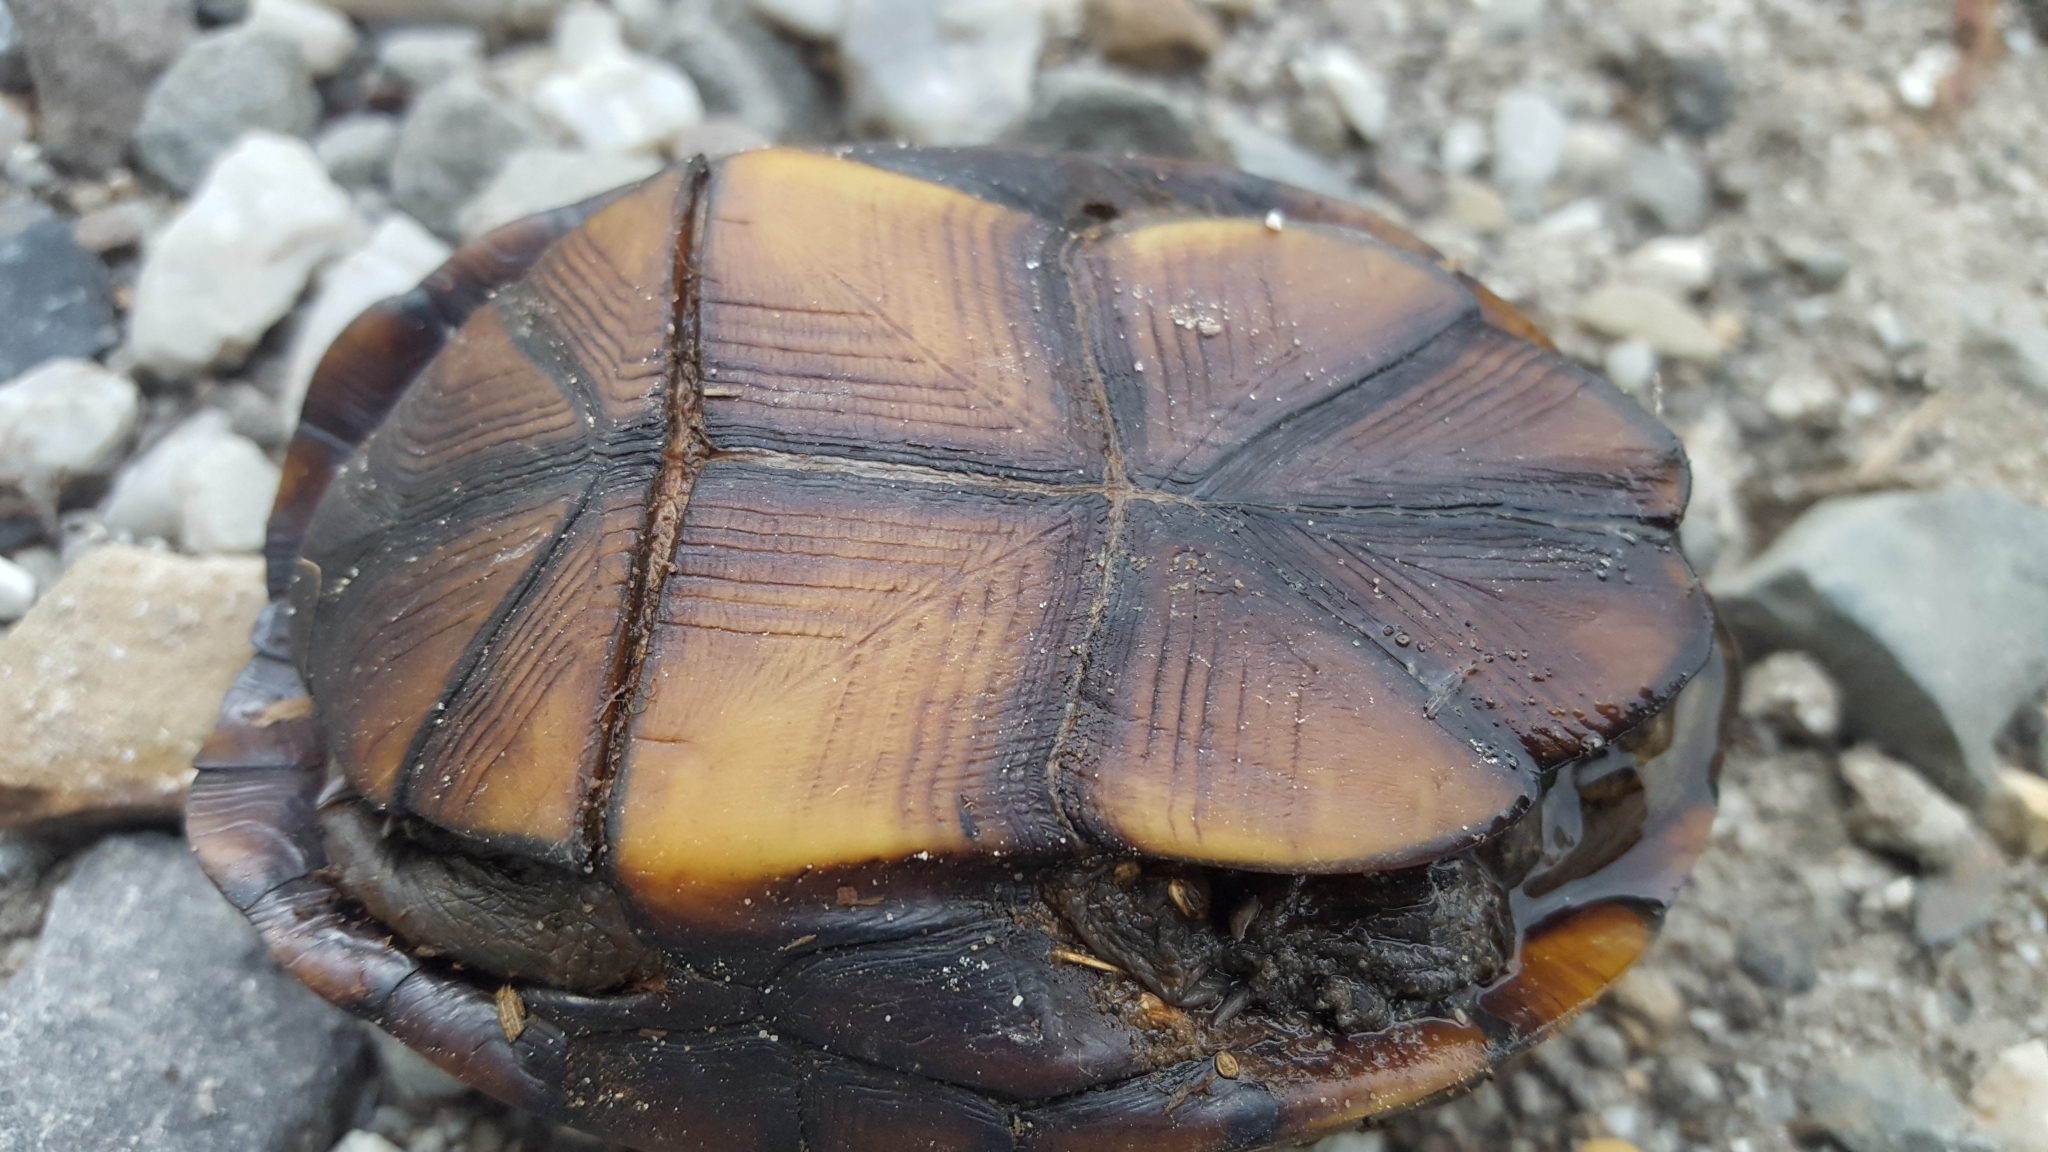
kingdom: Animalia
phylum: Chordata
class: Testudines
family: Kinosternidae
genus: Kinosternon
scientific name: Kinosternon subrubrum
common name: Eastern mud turtle
